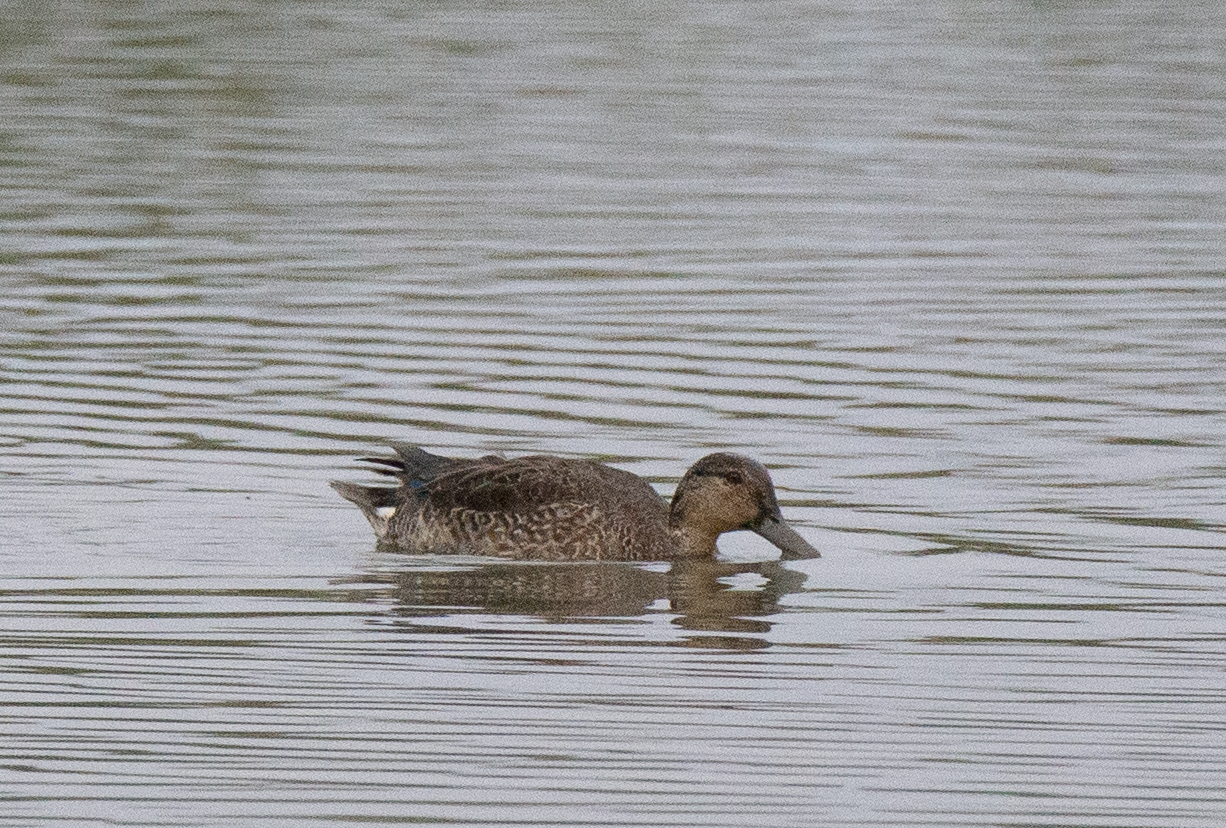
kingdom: Animalia
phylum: Chordata
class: Aves
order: Anseriformes
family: Anatidae
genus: Anas
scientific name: Anas crecca
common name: Eurasian teal
